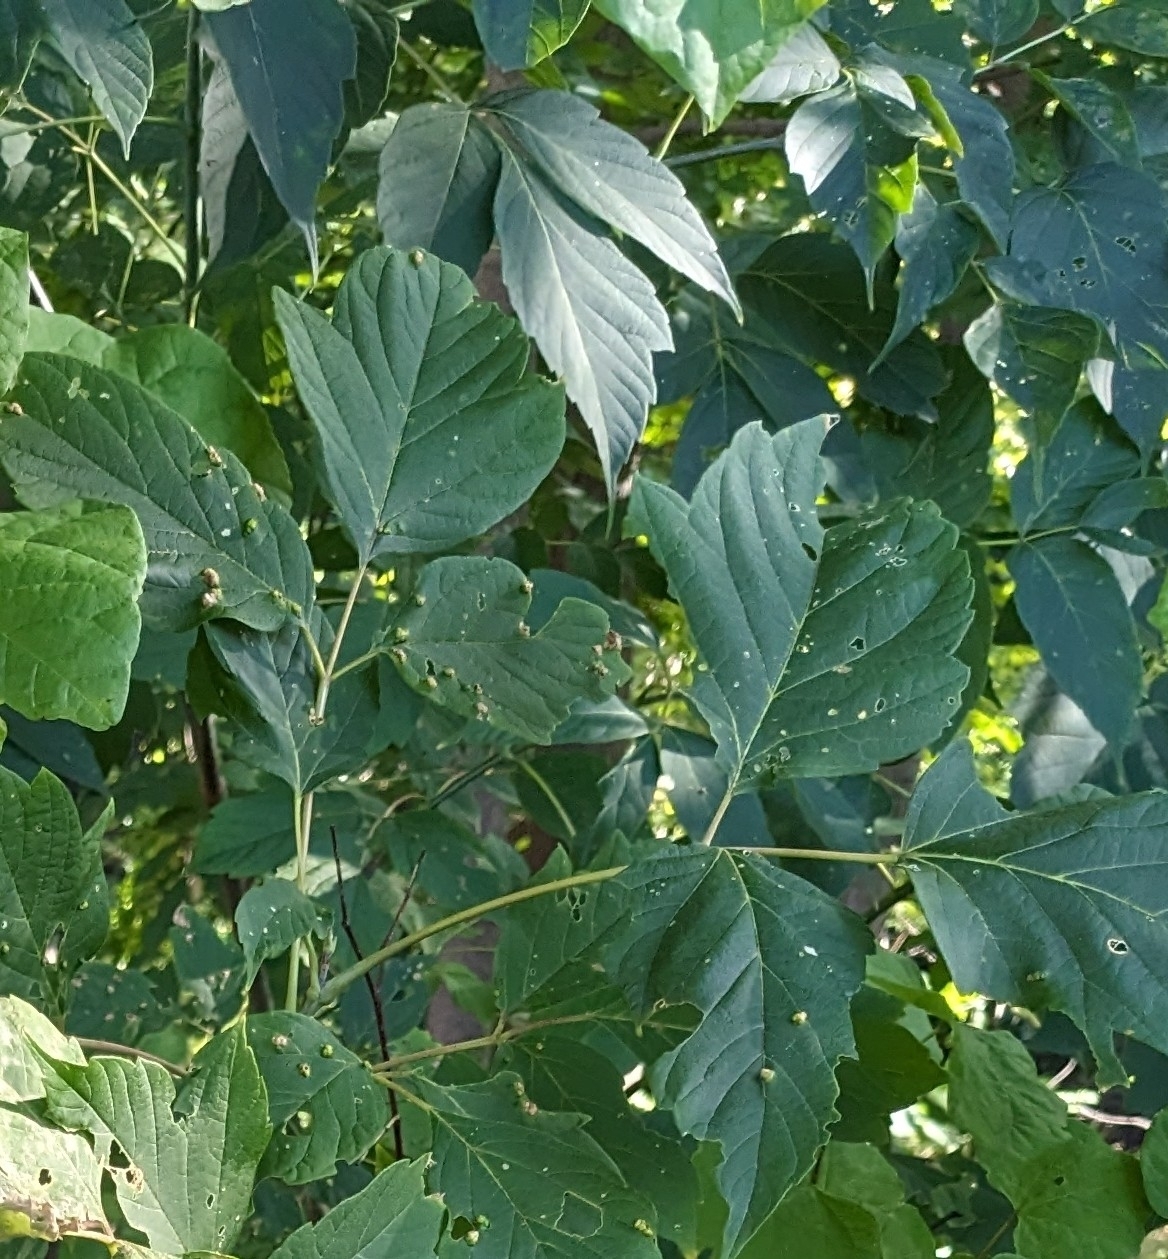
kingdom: Animalia
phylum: Arthropoda
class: Arachnida
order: Trombidiformes
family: Eriophyidae
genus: Aceria
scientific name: Aceria
